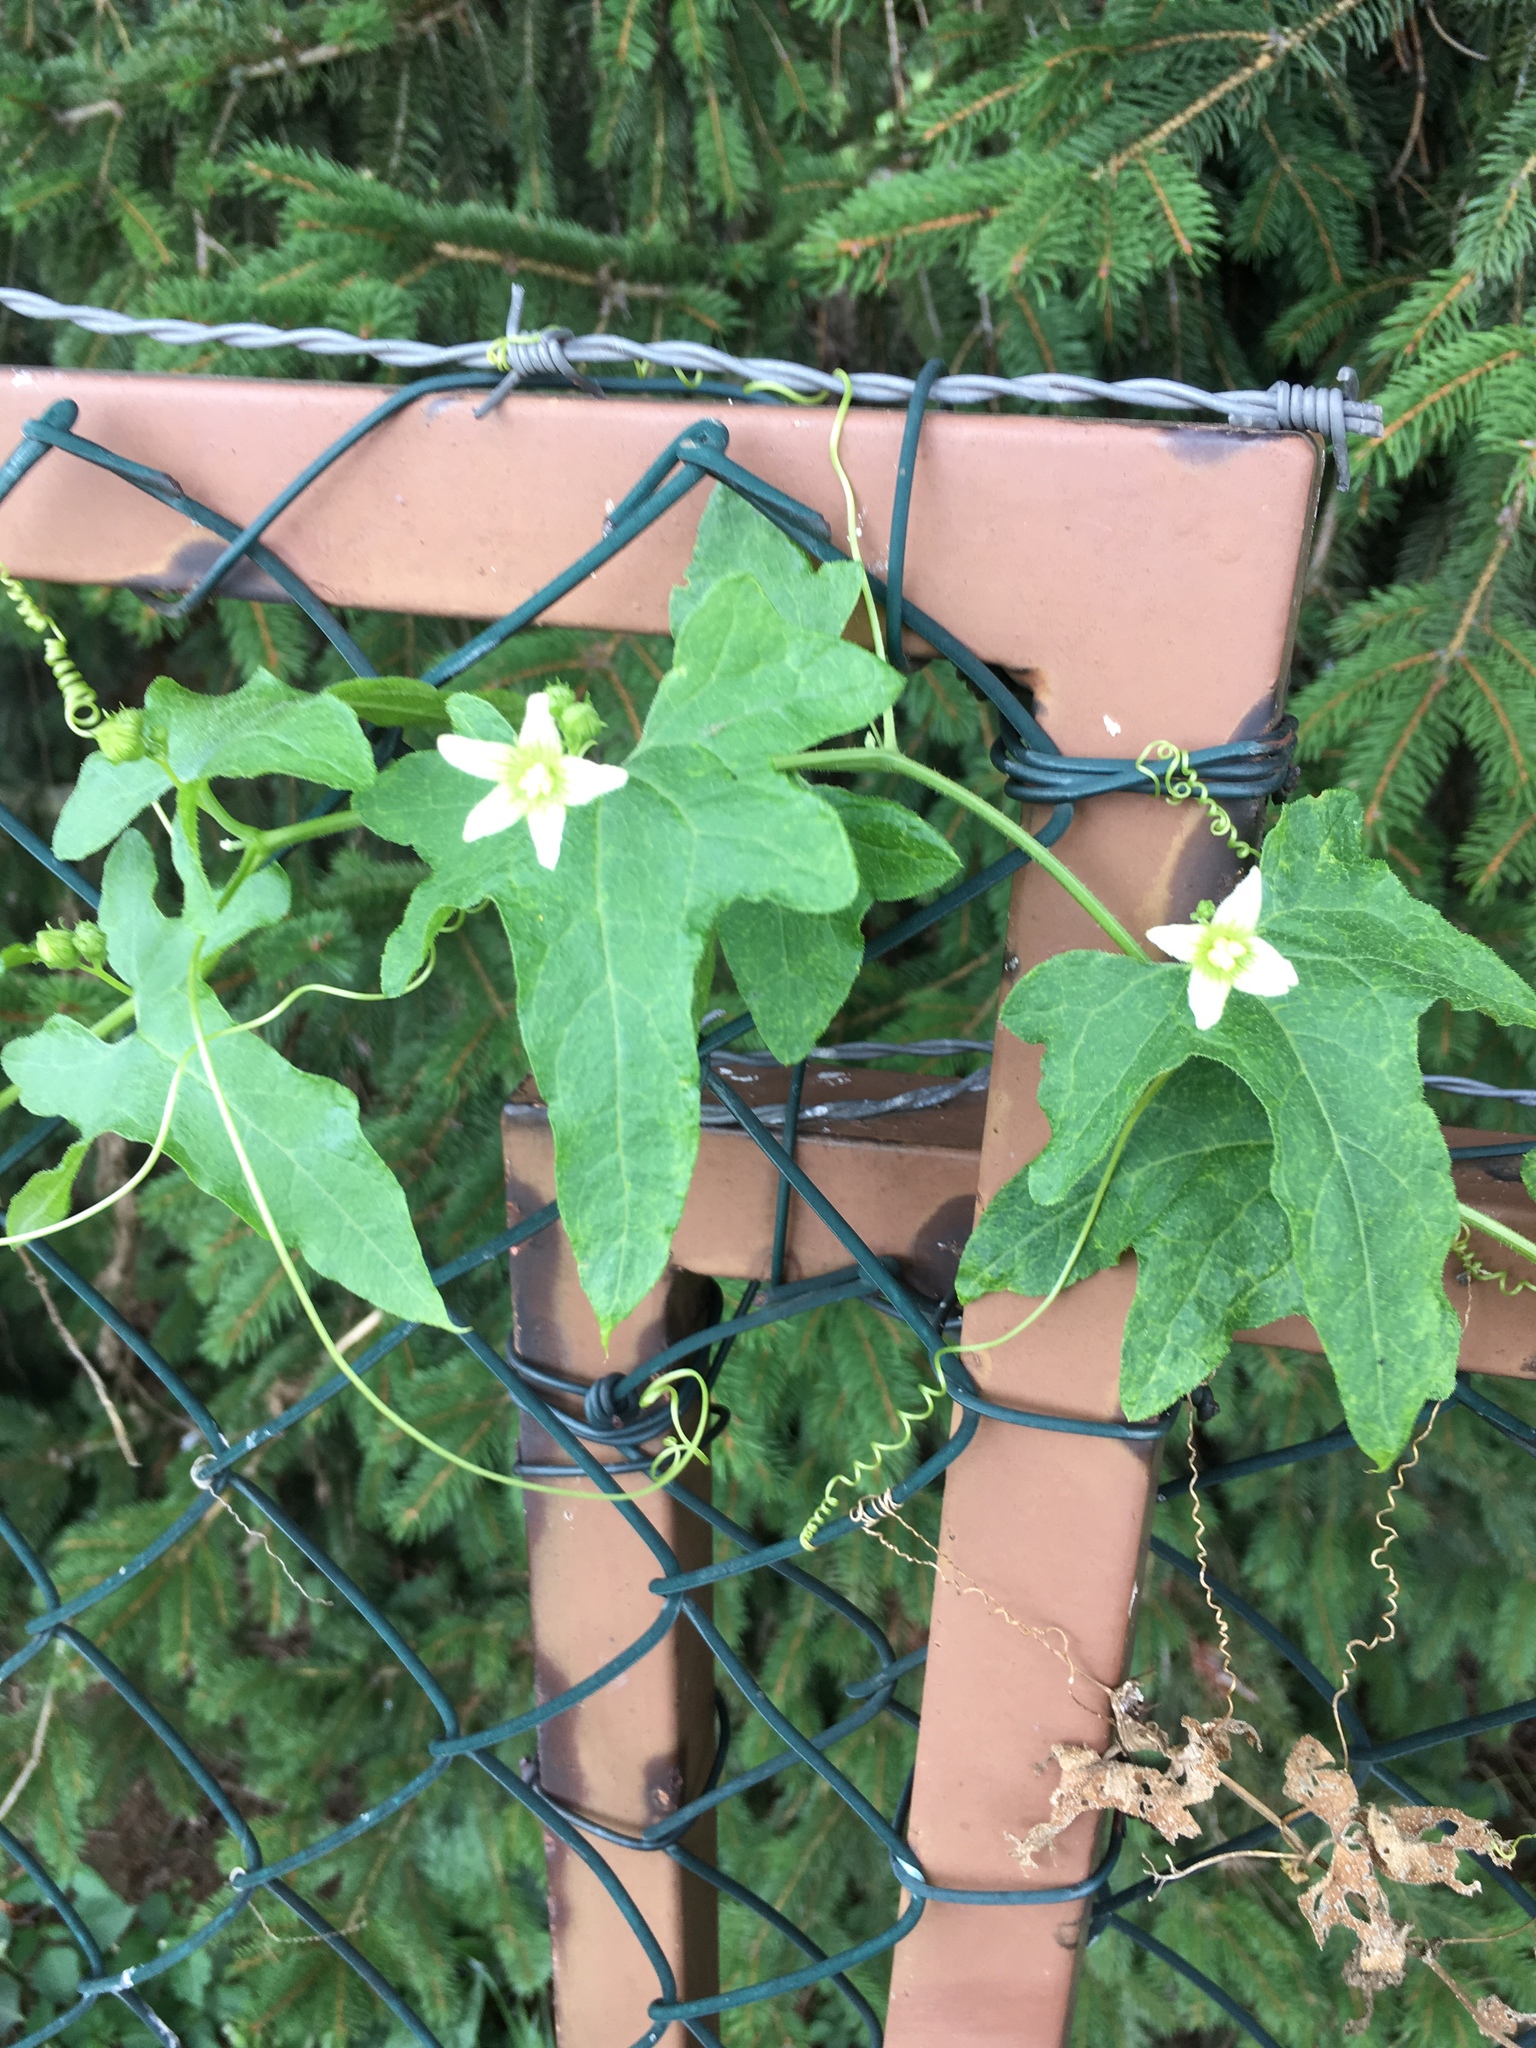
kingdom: Plantae
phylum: Tracheophyta
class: Magnoliopsida
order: Cucurbitales
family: Cucurbitaceae
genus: Bryonia
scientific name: Bryonia cretica
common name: Cretan bryony
